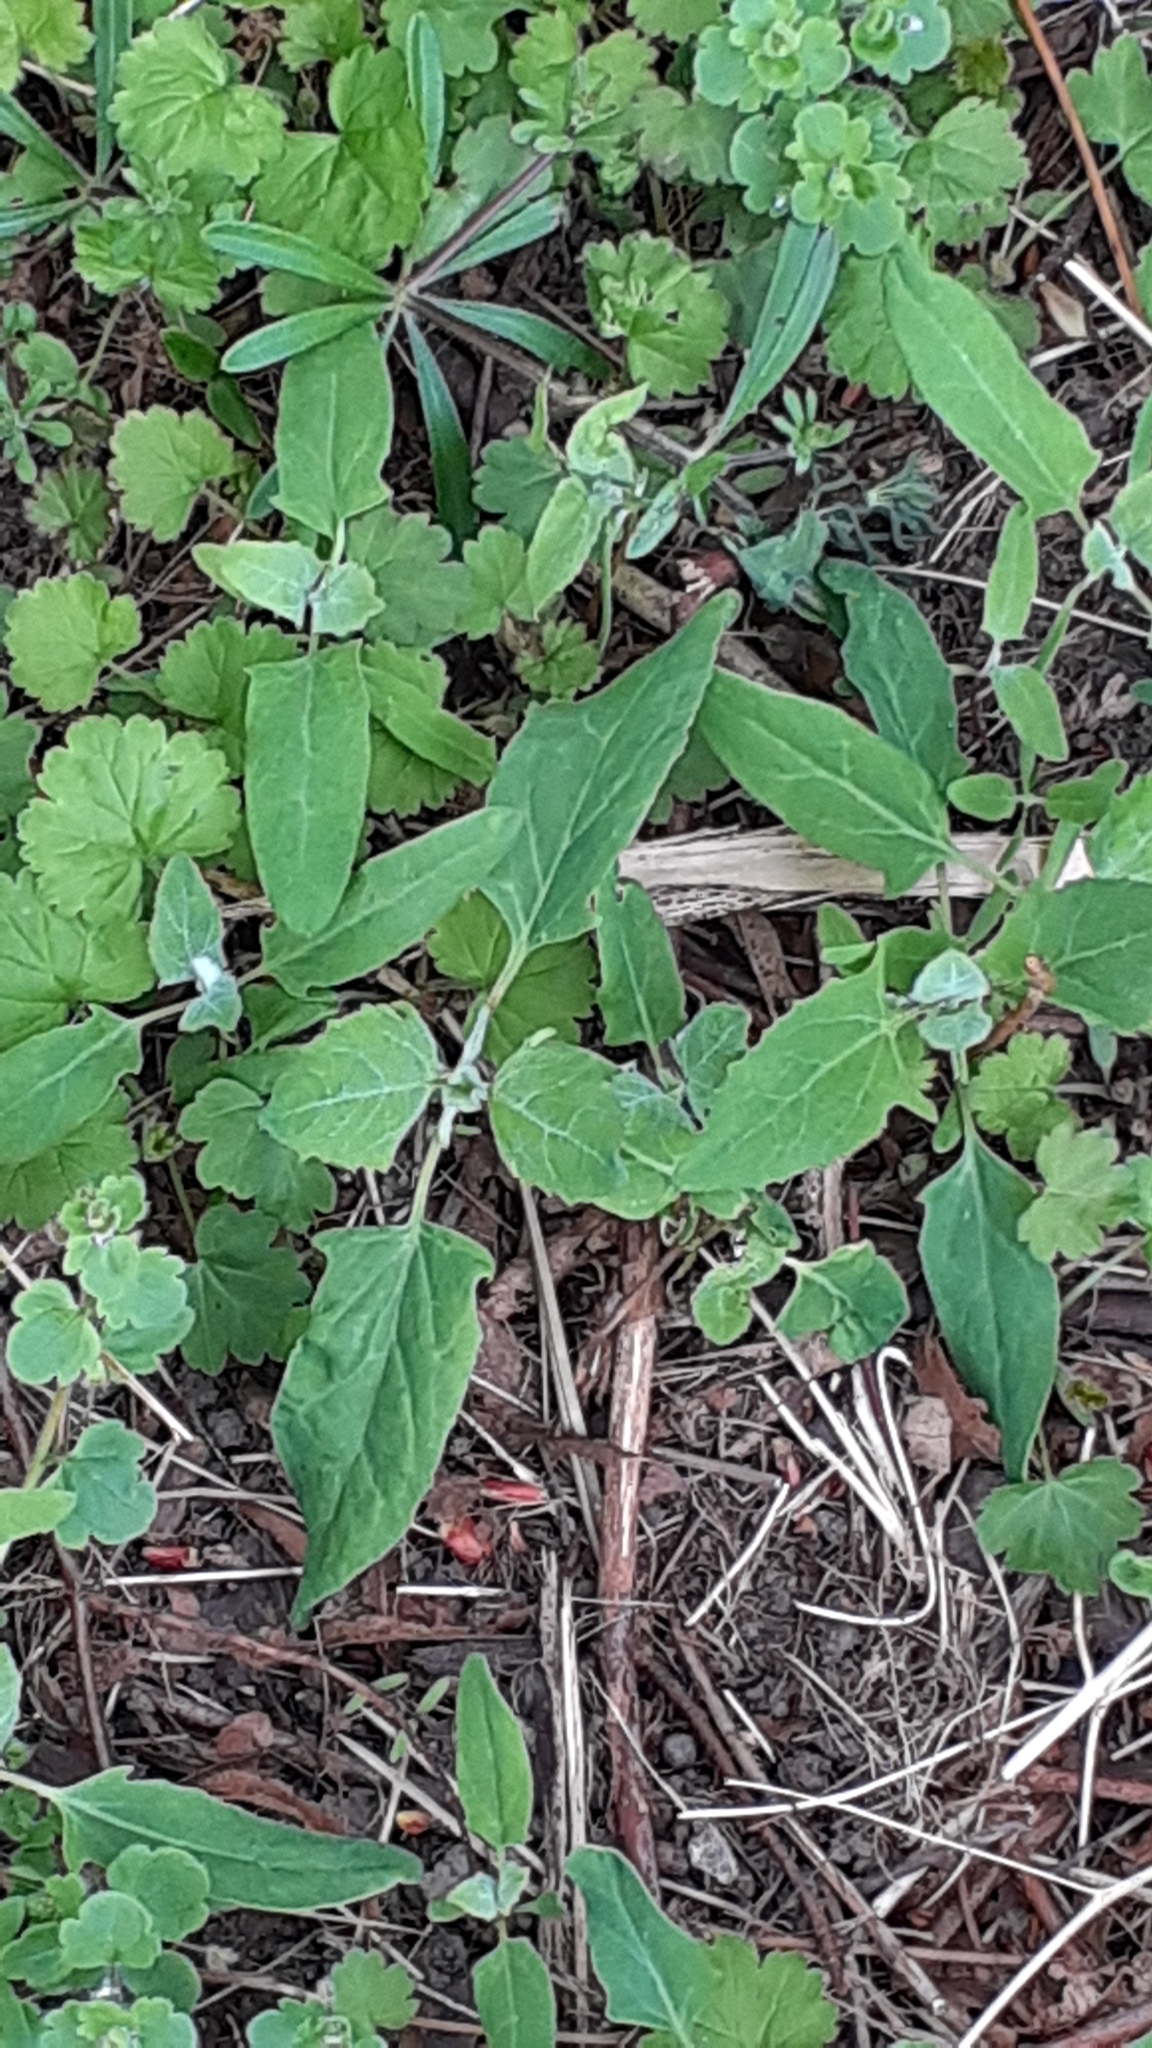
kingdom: Plantae
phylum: Tracheophyta
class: Magnoliopsida
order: Caryophyllales
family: Amaranthaceae
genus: Chenopodium
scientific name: Chenopodium album
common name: Fat-hen
